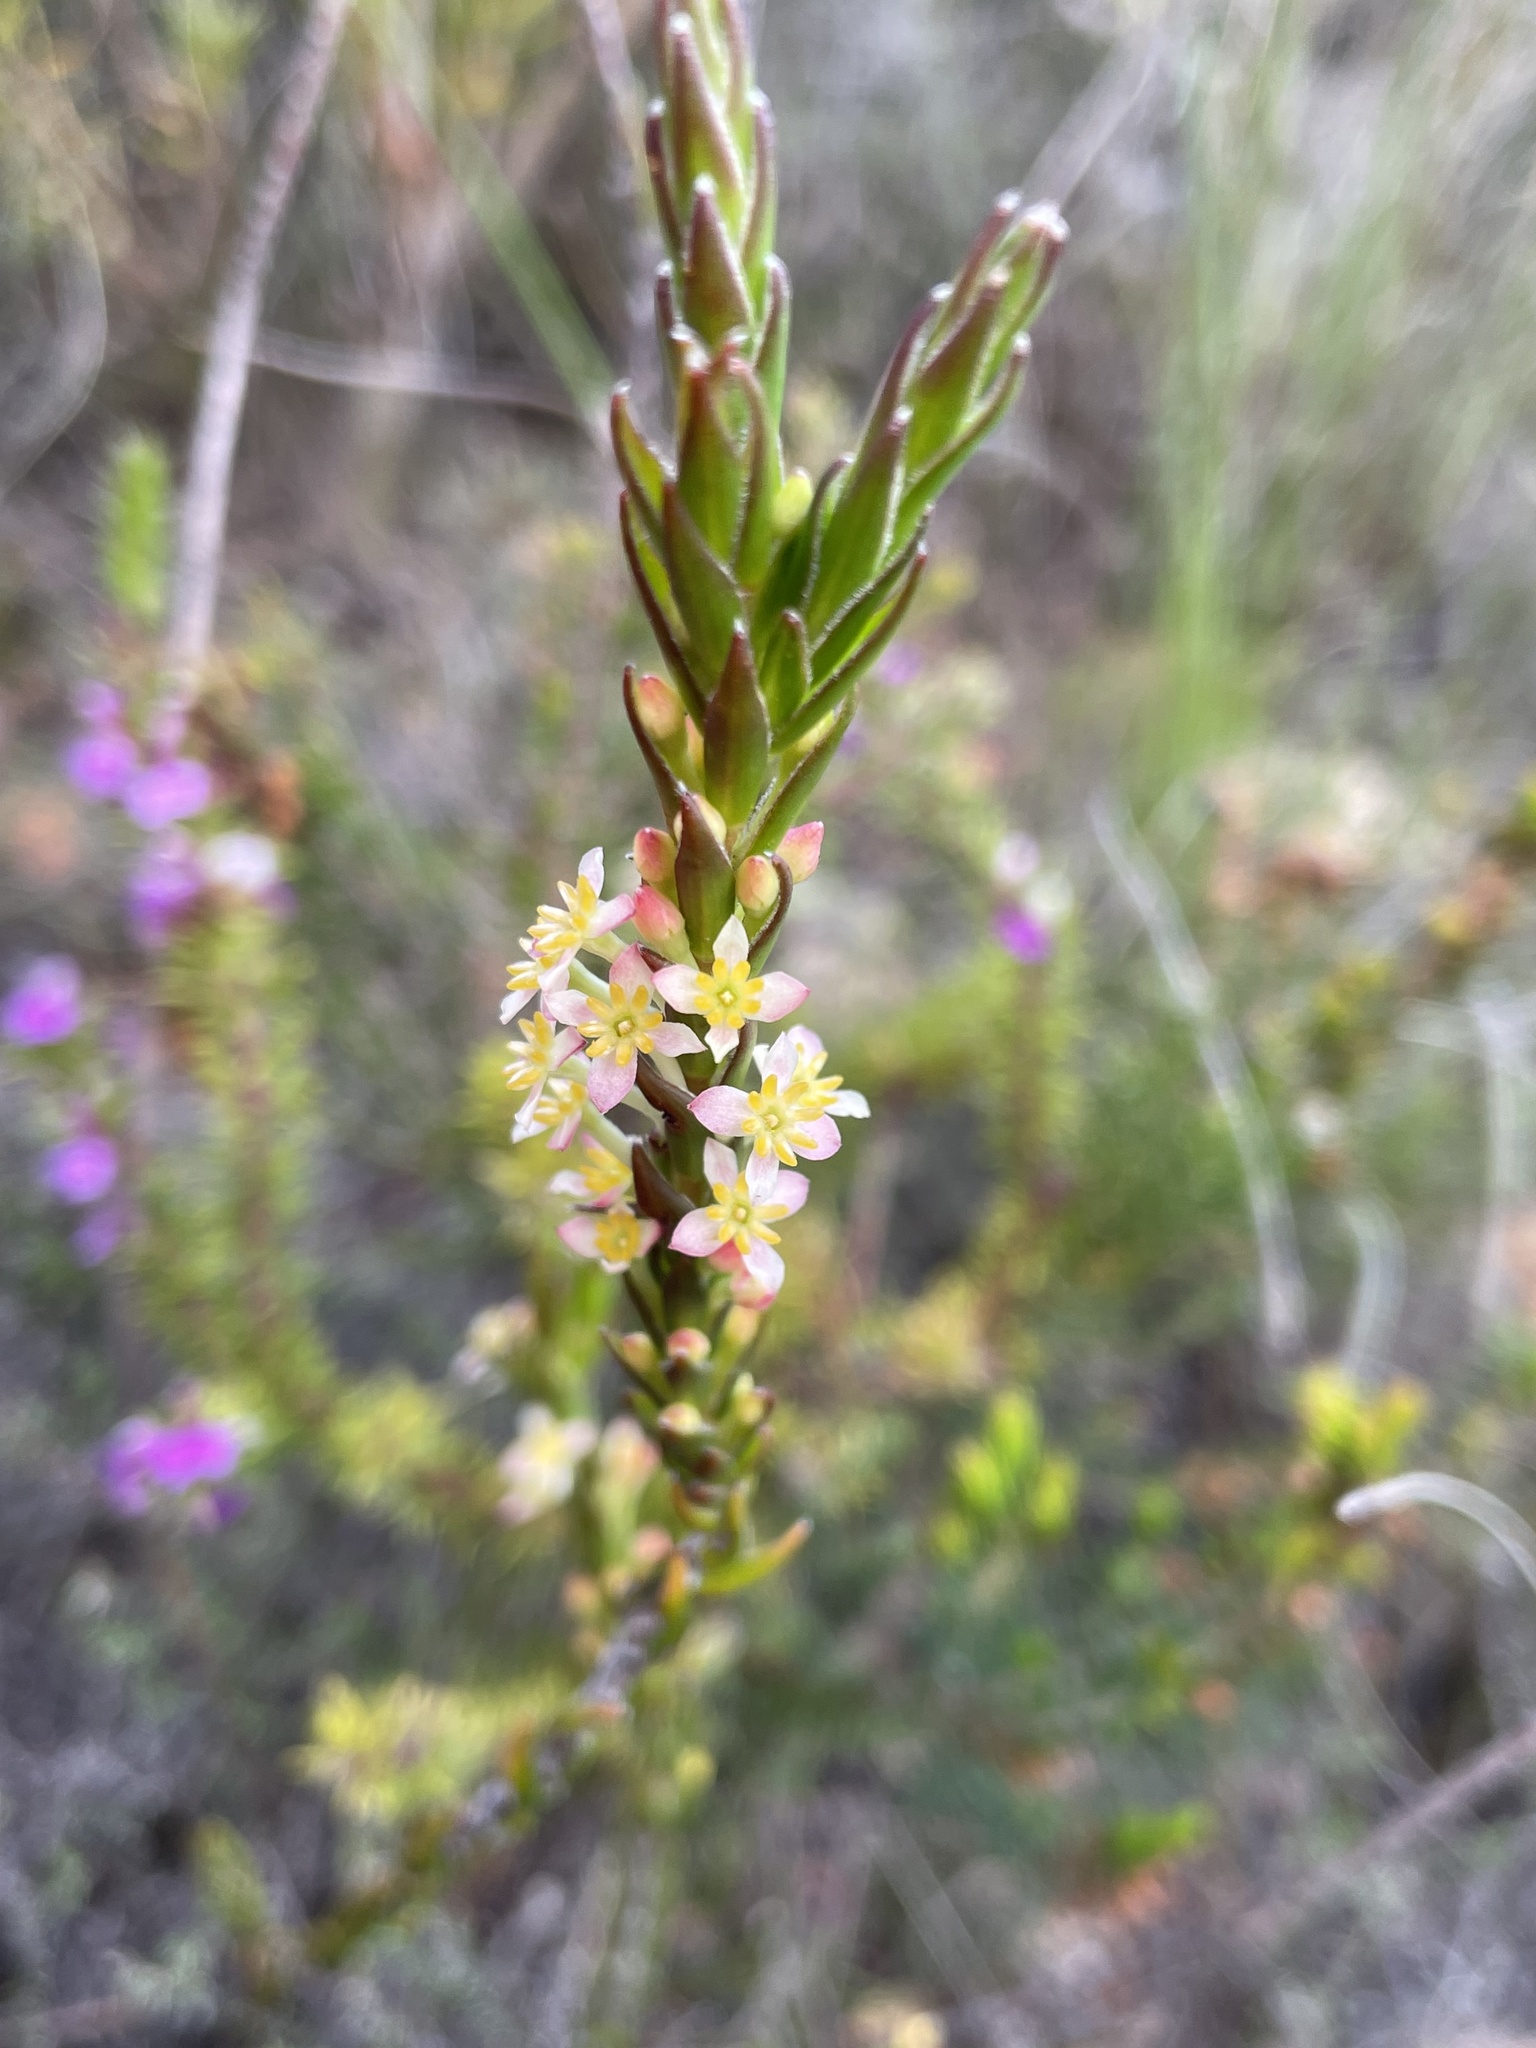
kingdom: Plantae
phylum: Tracheophyta
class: Magnoliopsida
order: Malvales
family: Thymelaeaceae
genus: Struthiola
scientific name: Struthiola ciliata
